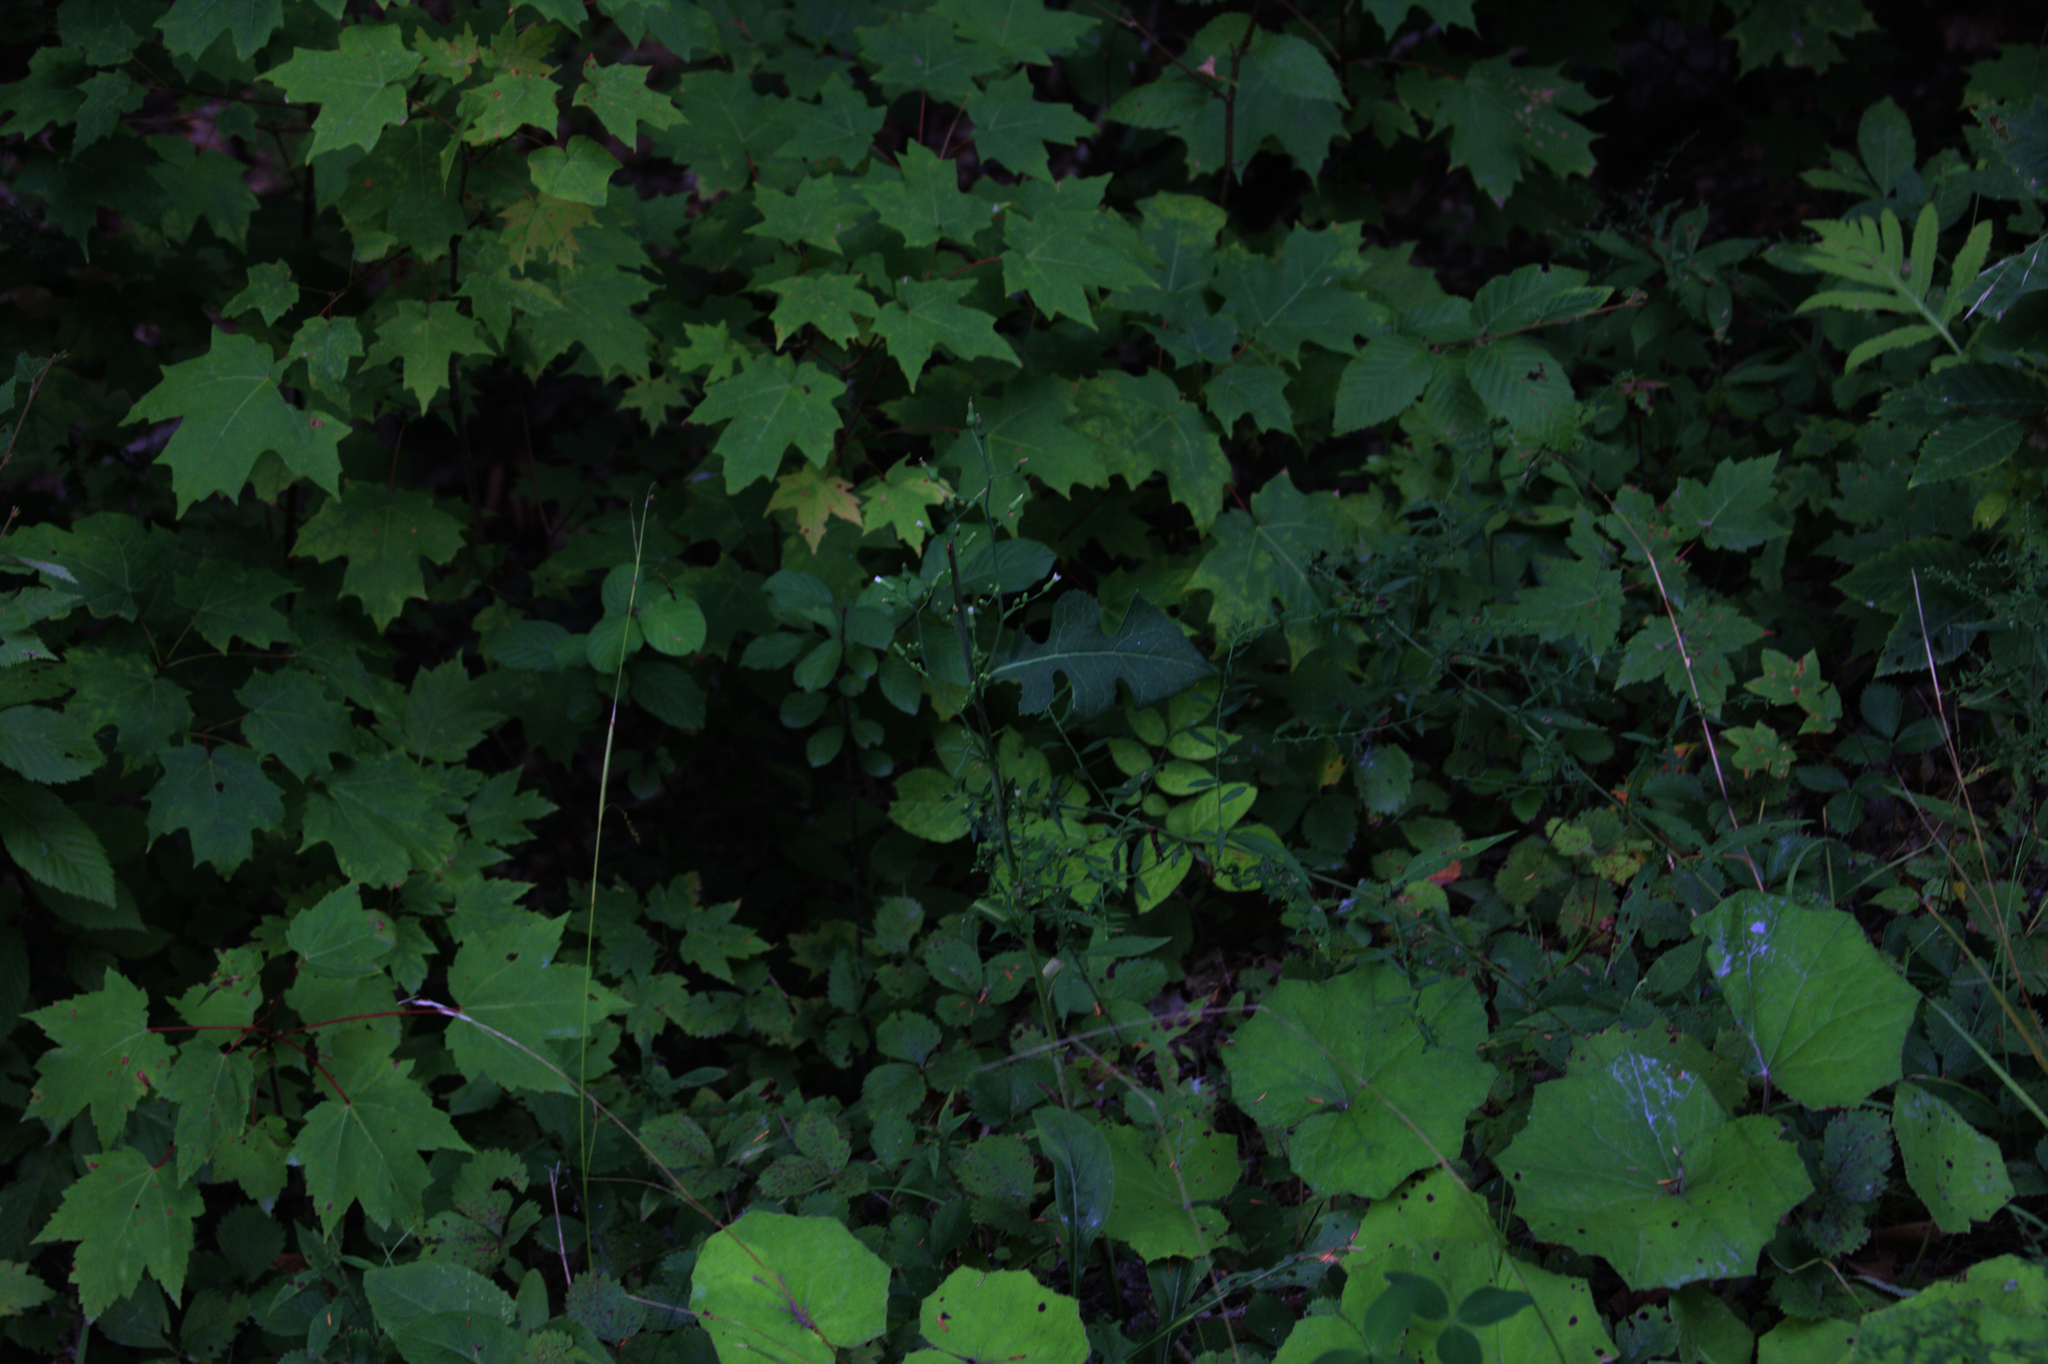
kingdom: Plantae
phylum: Tracheophyta
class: Magnoliopsida
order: Sapindales
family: Sapindaceae
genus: Acer
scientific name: Acer rubrum
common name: Red maple
